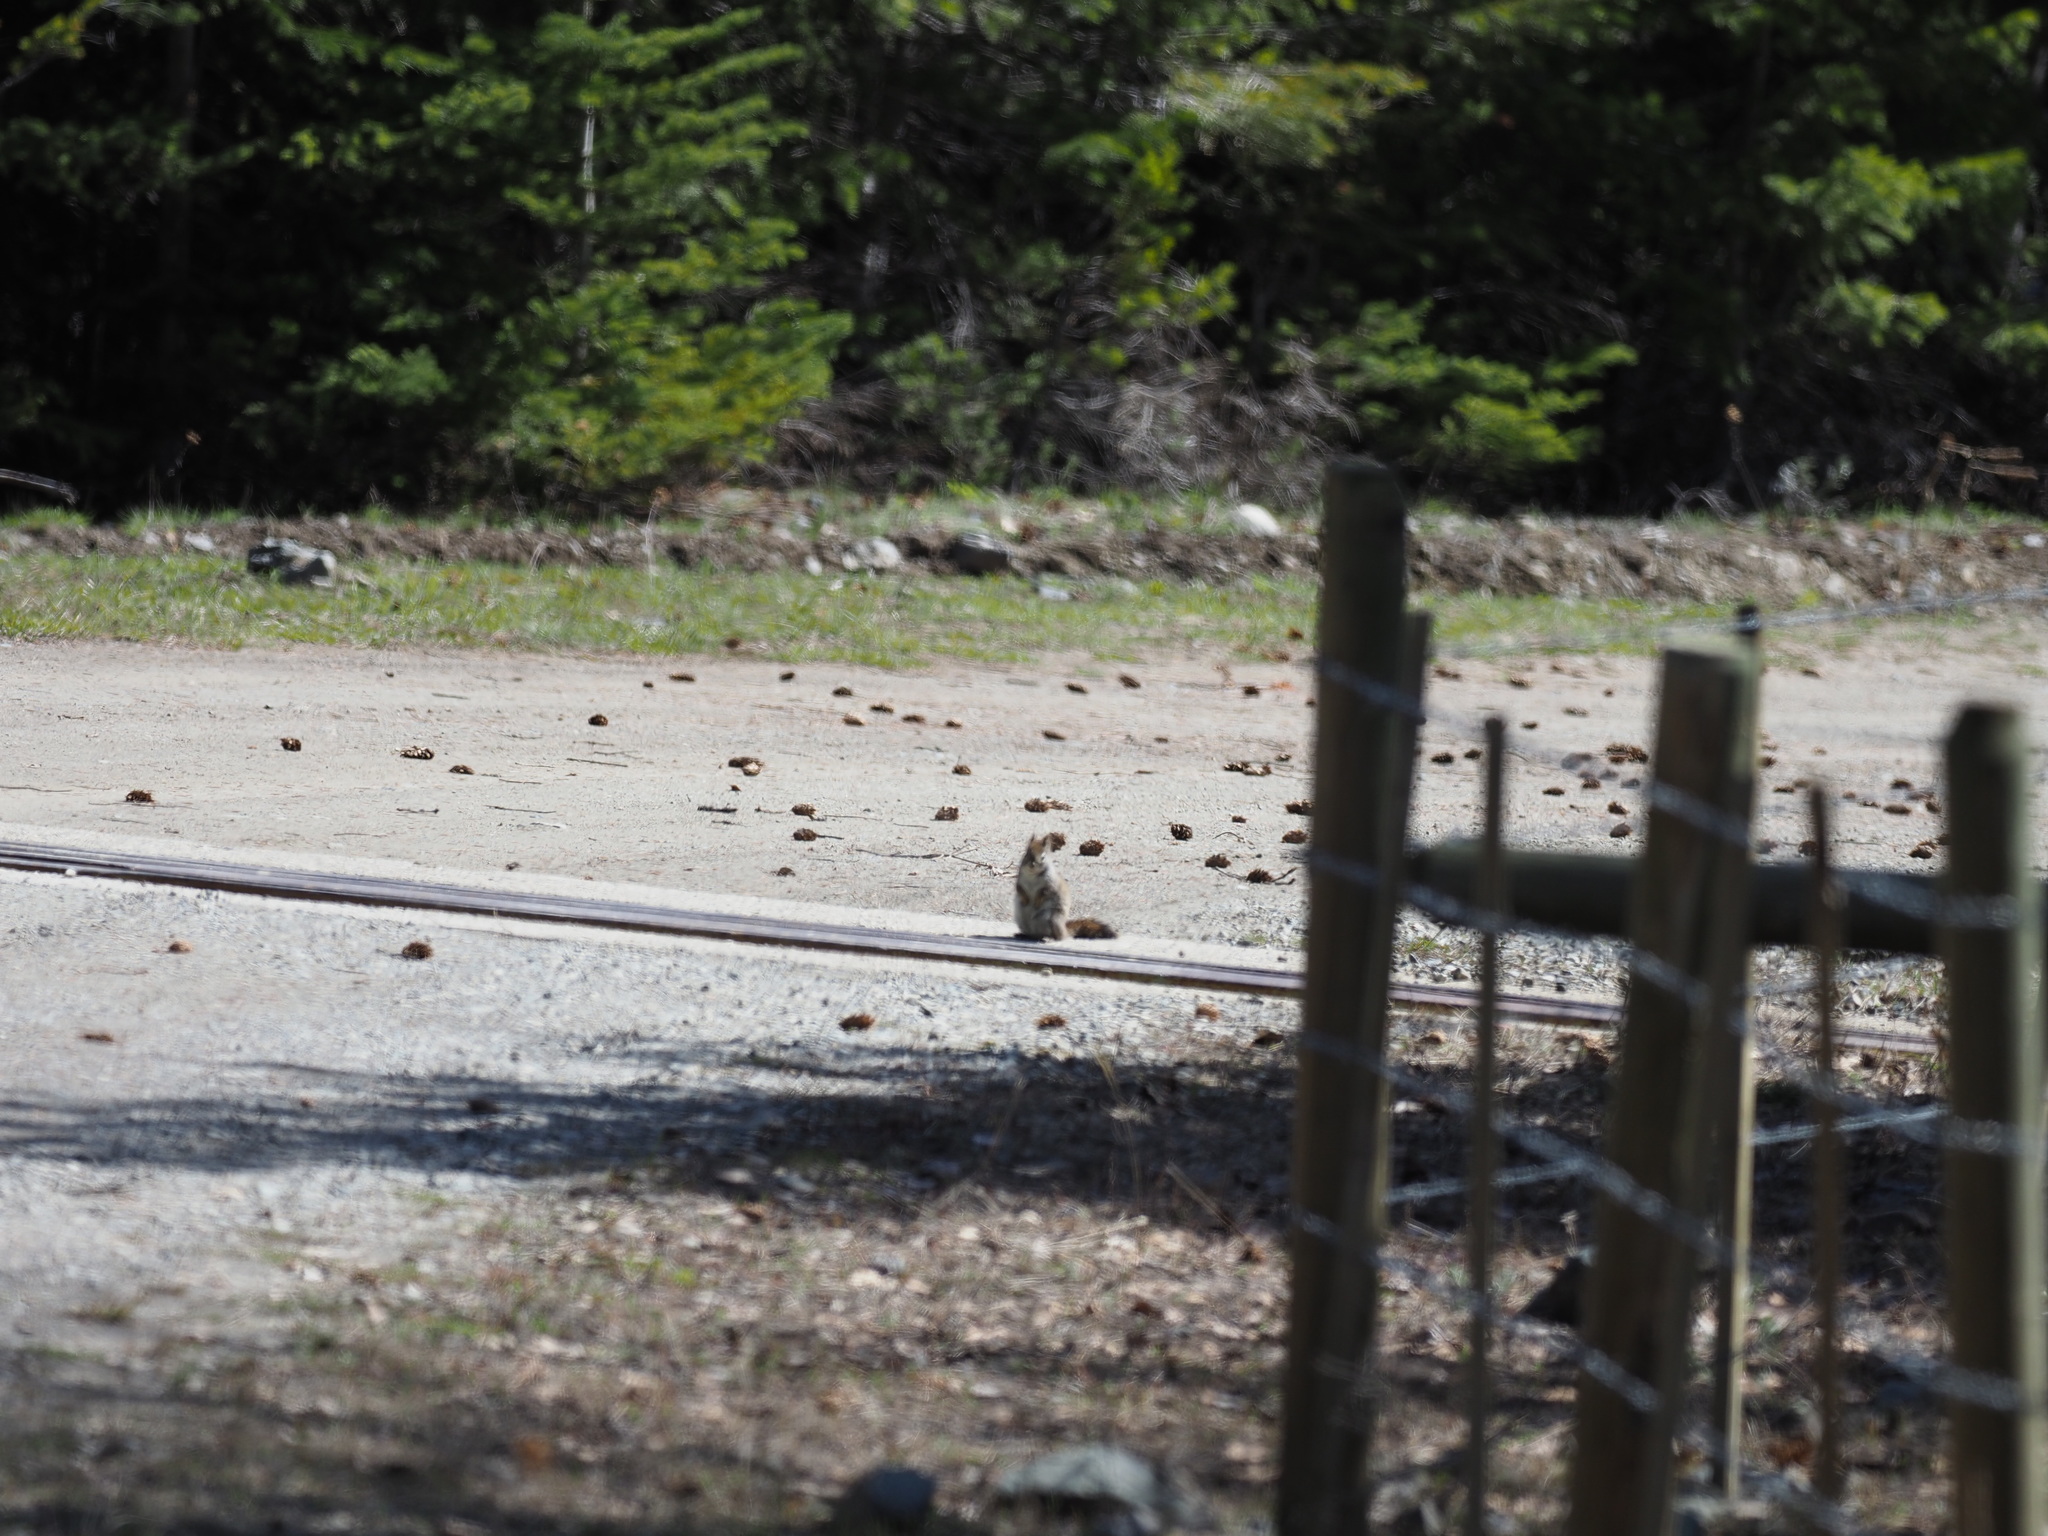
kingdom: Animalia
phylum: Chordata
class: Mammalia
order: Rodentia
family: Sciuridae
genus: Tamiasciurus
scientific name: Tamiasciurus hudsonicus
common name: Red squirrel
